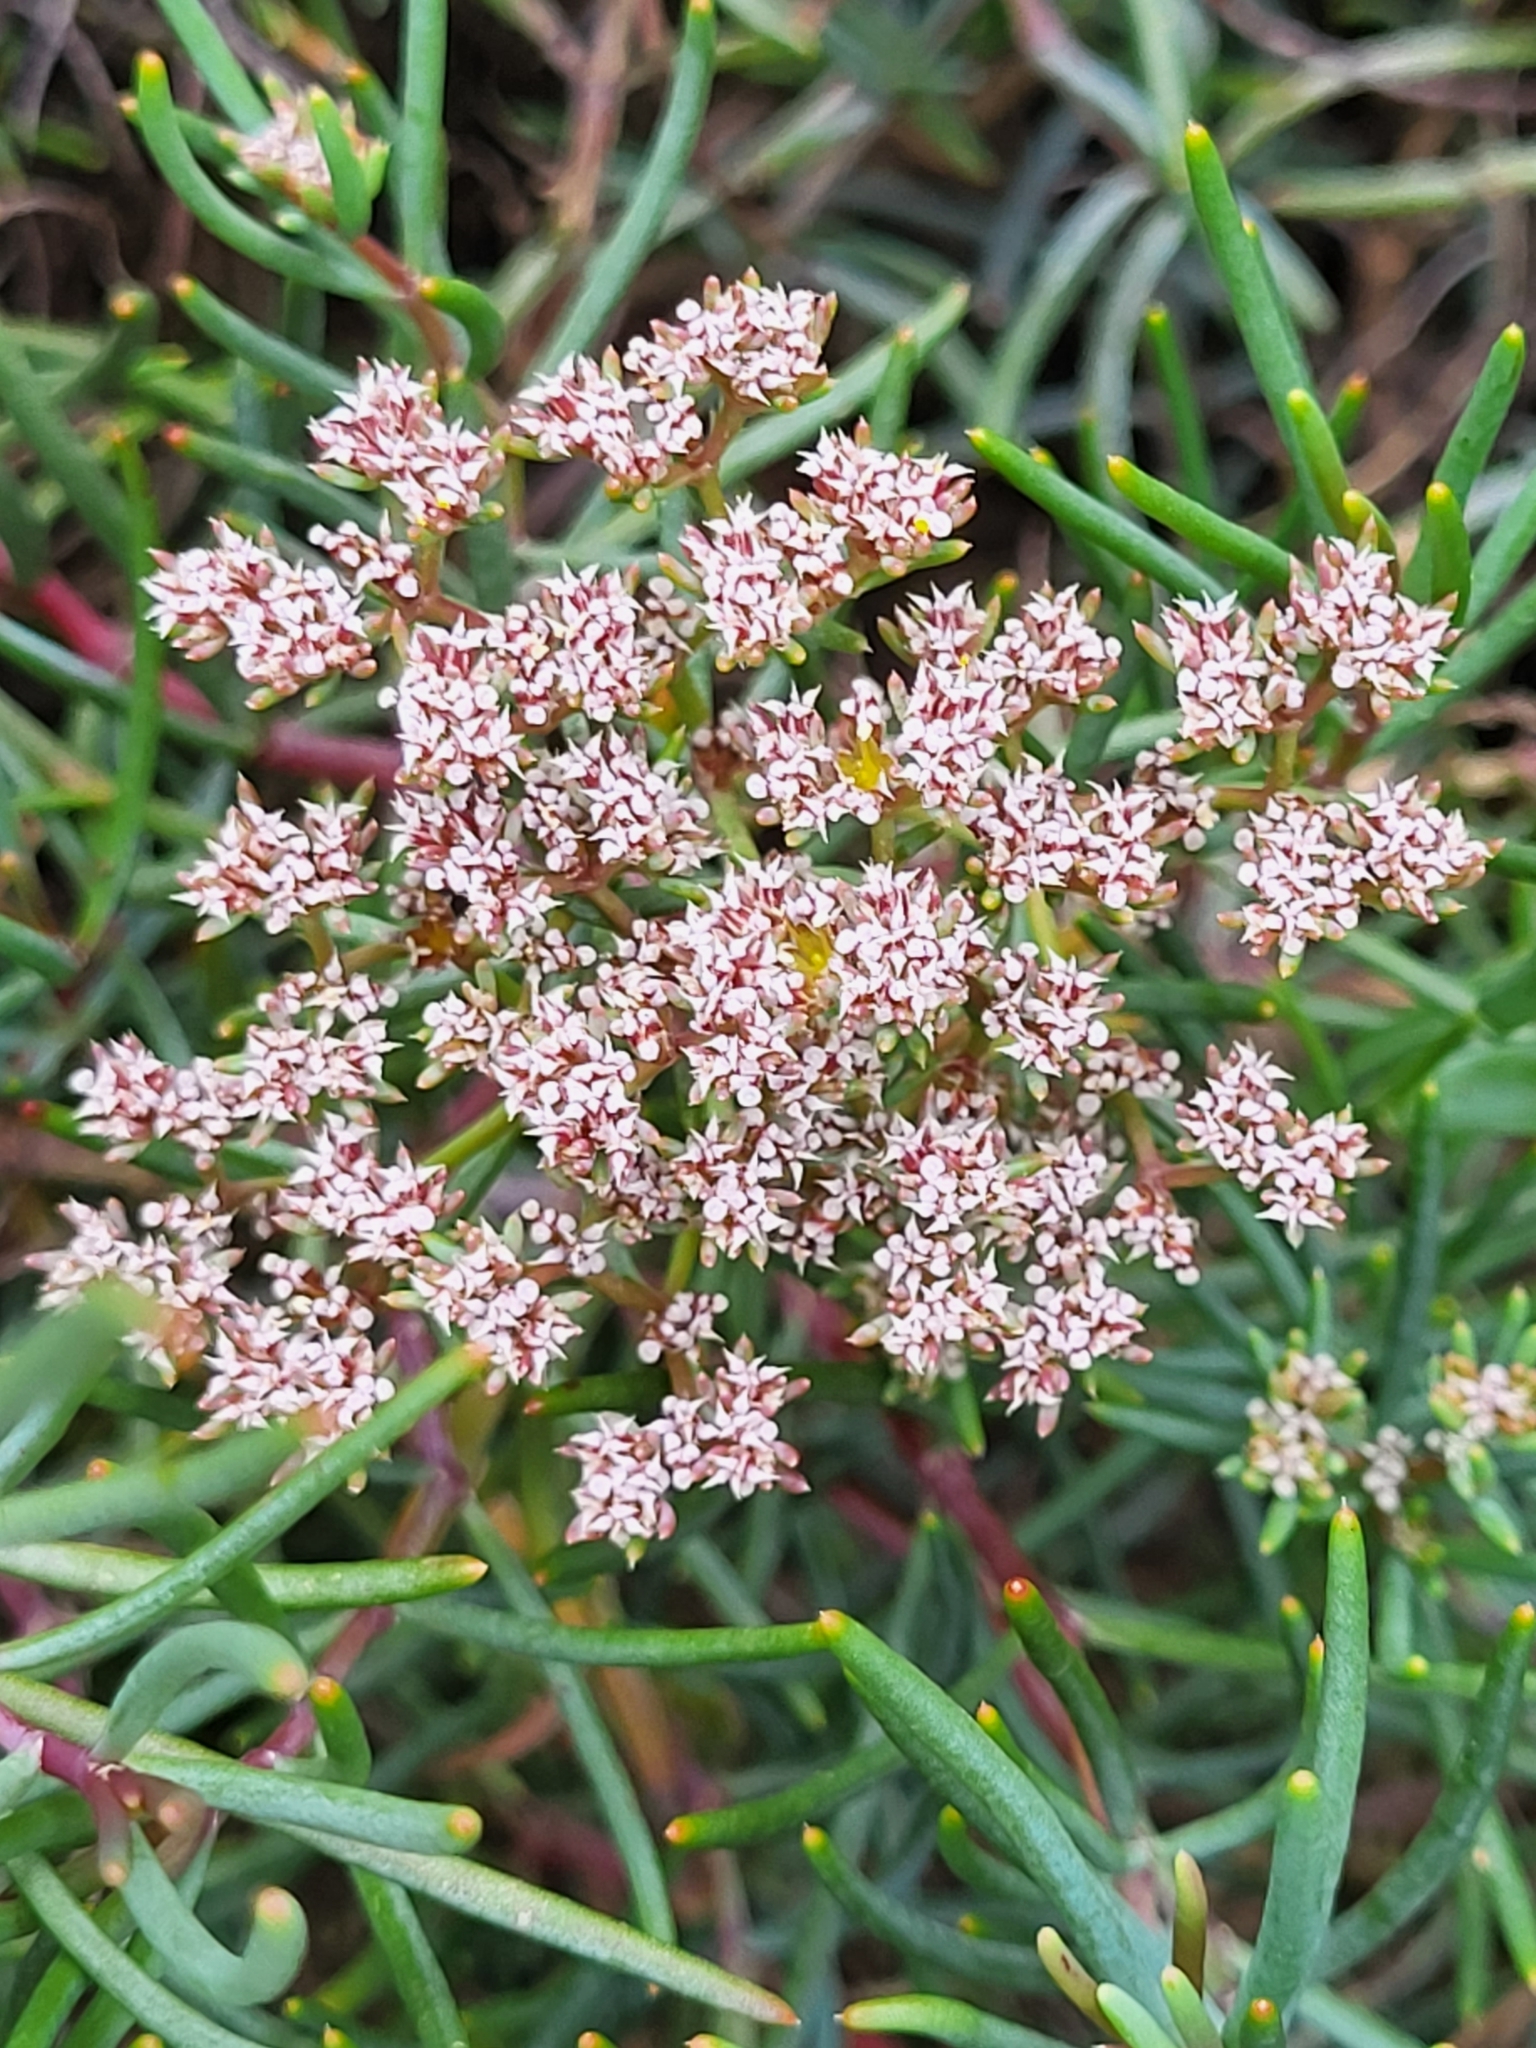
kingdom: Plantae
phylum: Tracheophyta
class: Magnoliopsida
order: Caryophyllales
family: Caryophyllaceae
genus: Dicheranthus
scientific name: Dicheranthus plocamoides
